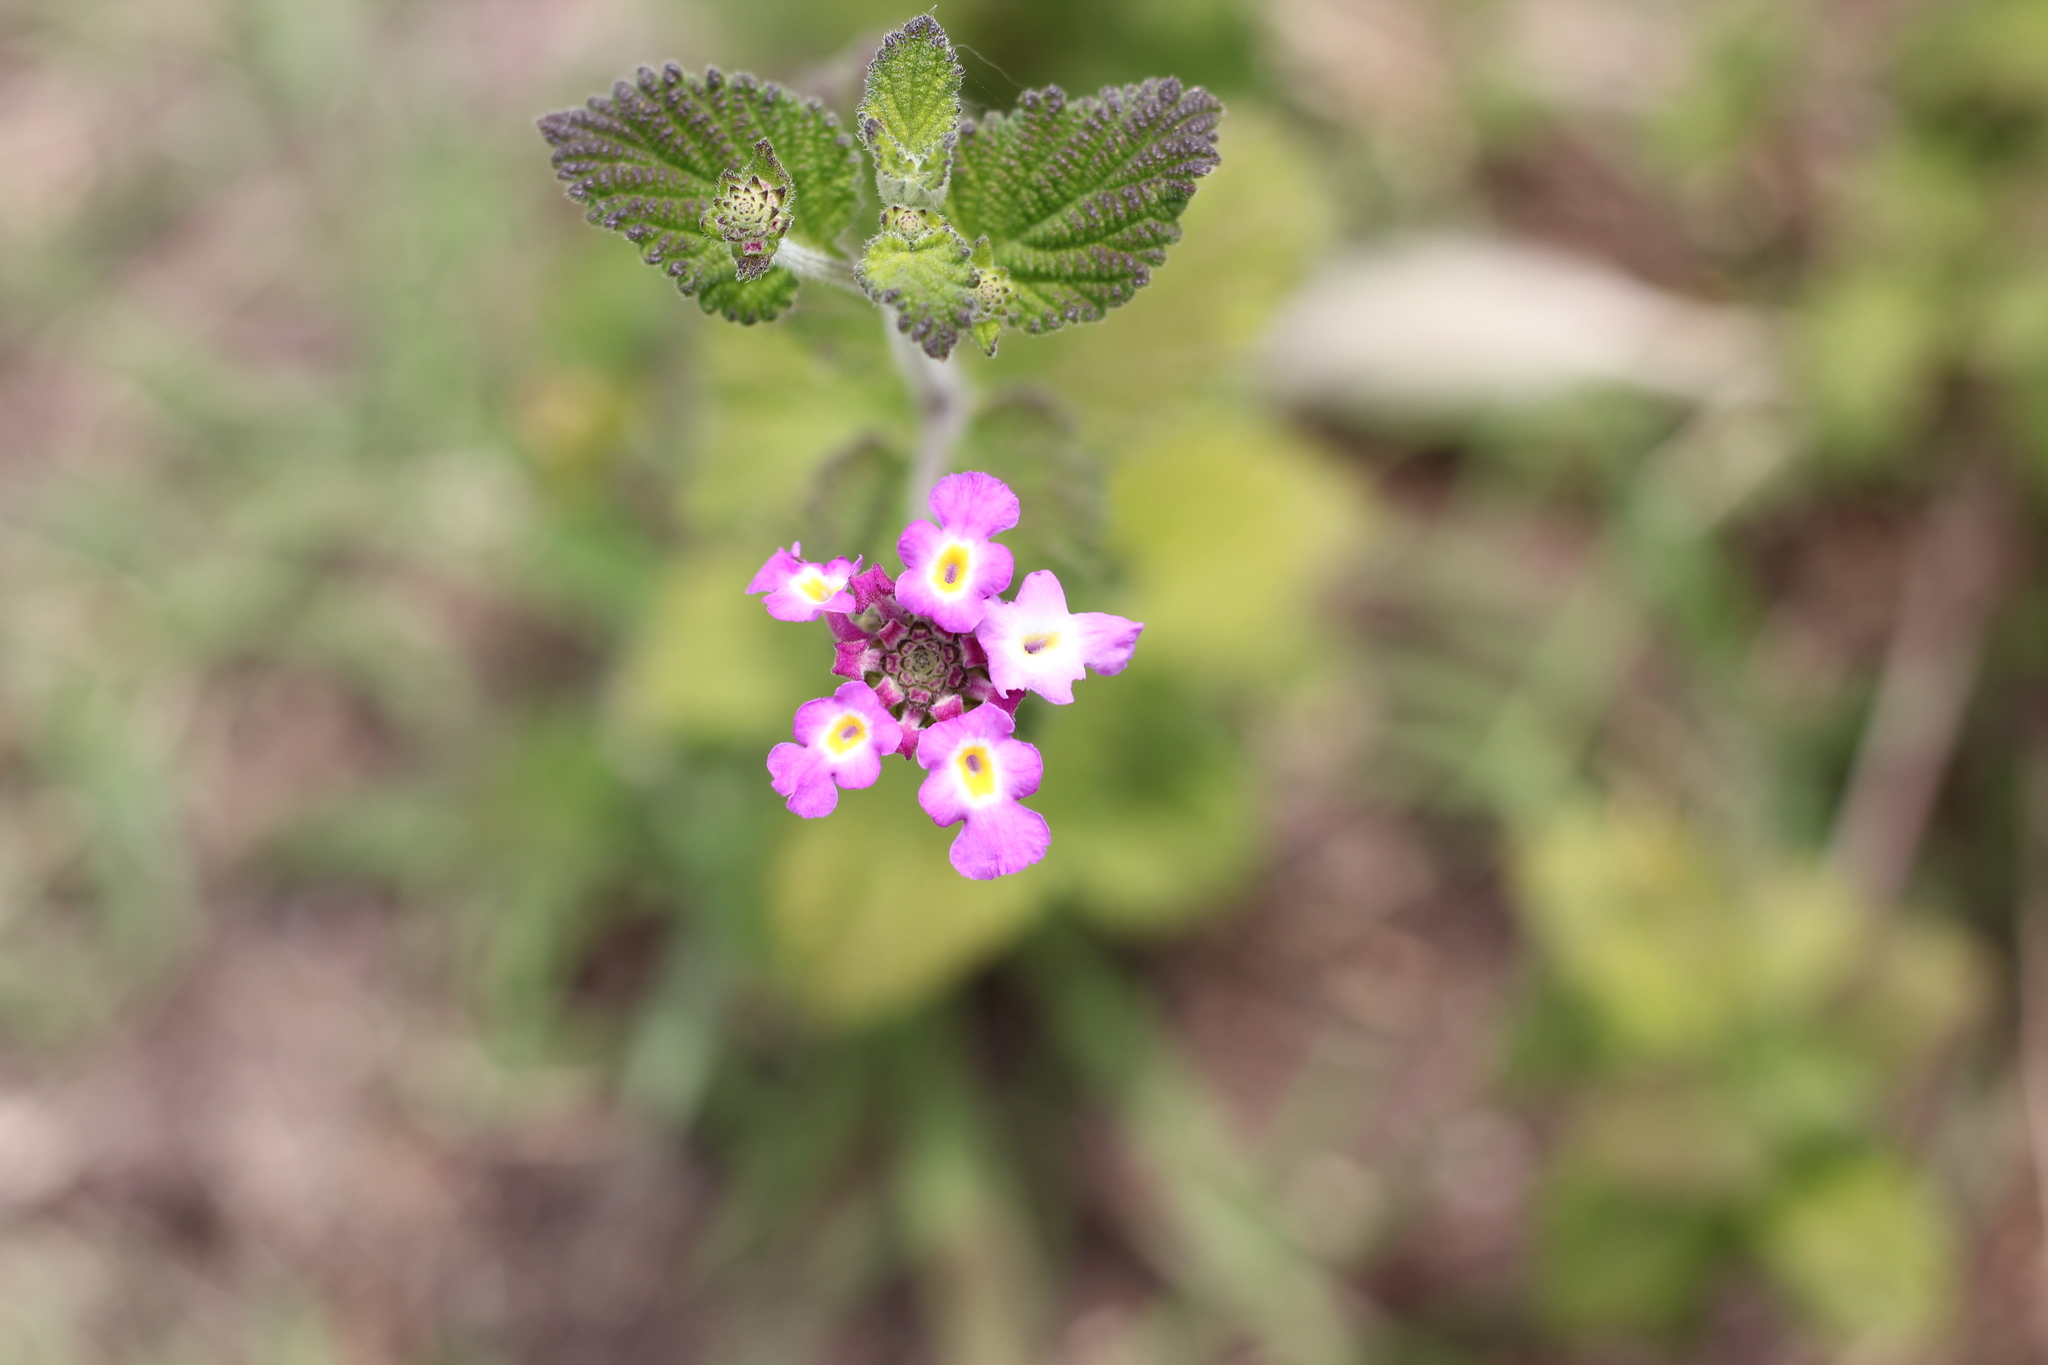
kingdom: Plantae
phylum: Tracheophyta
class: Magnoliopsida
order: Lamiales
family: Verbenaceae
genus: Lantana
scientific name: Lantana megapotamica
